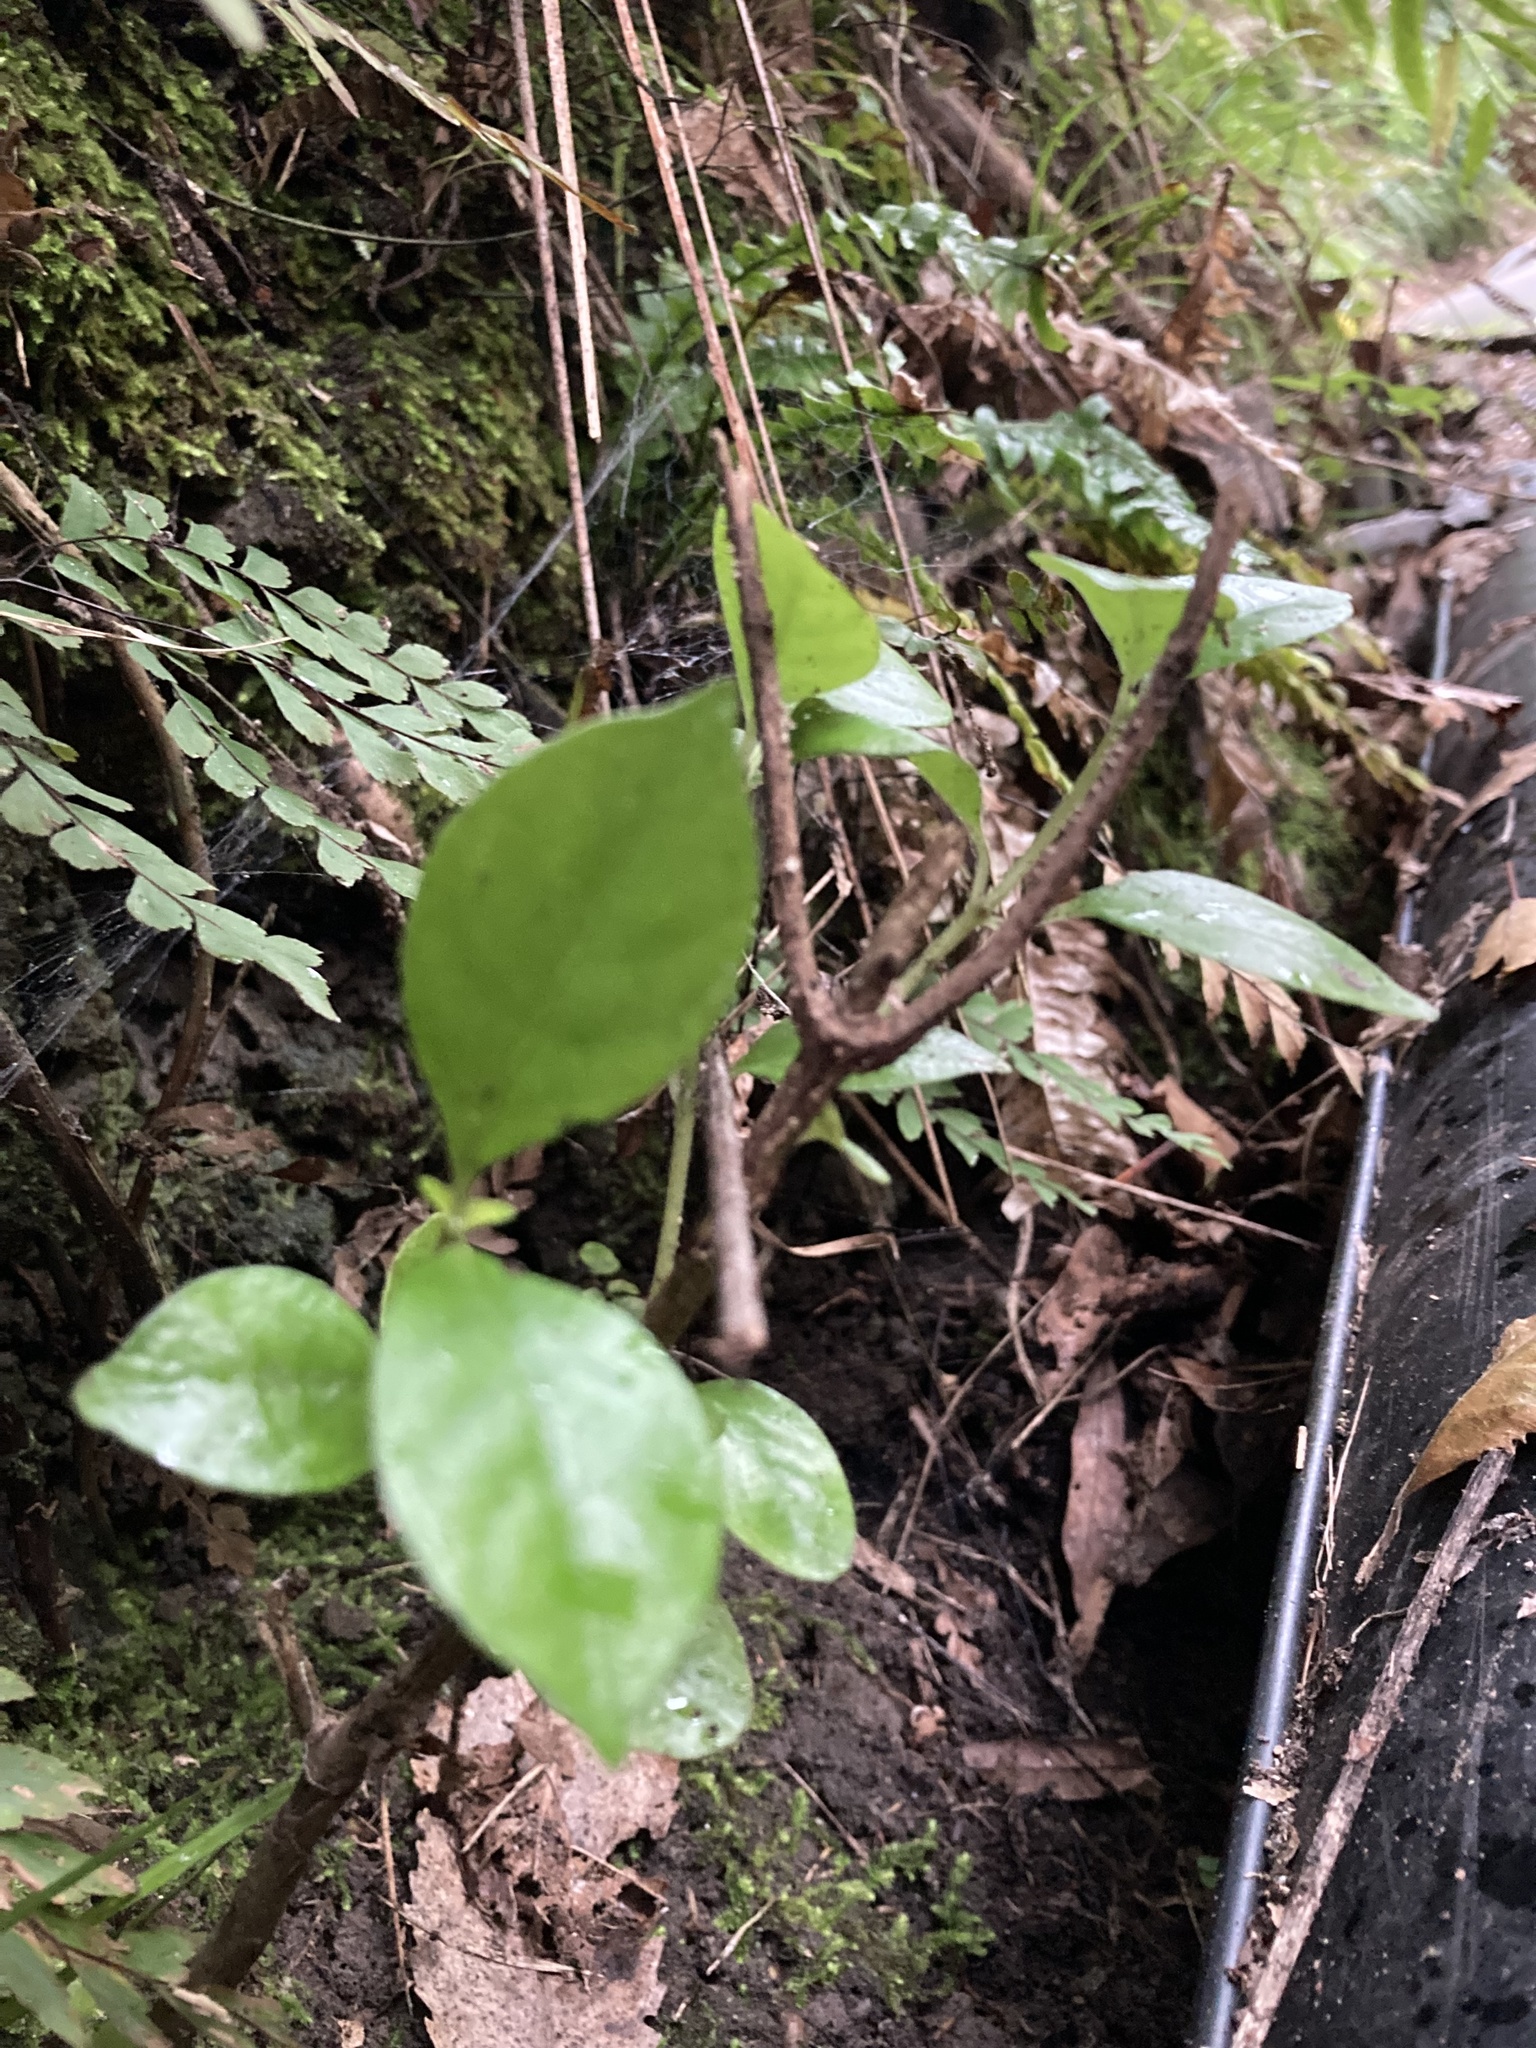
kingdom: Plantae
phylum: Tracheophyta
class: Magnoliopsida
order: Gentianales
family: Loganiaceae
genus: Geniostoma
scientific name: Geniostoma ligustrifolium
